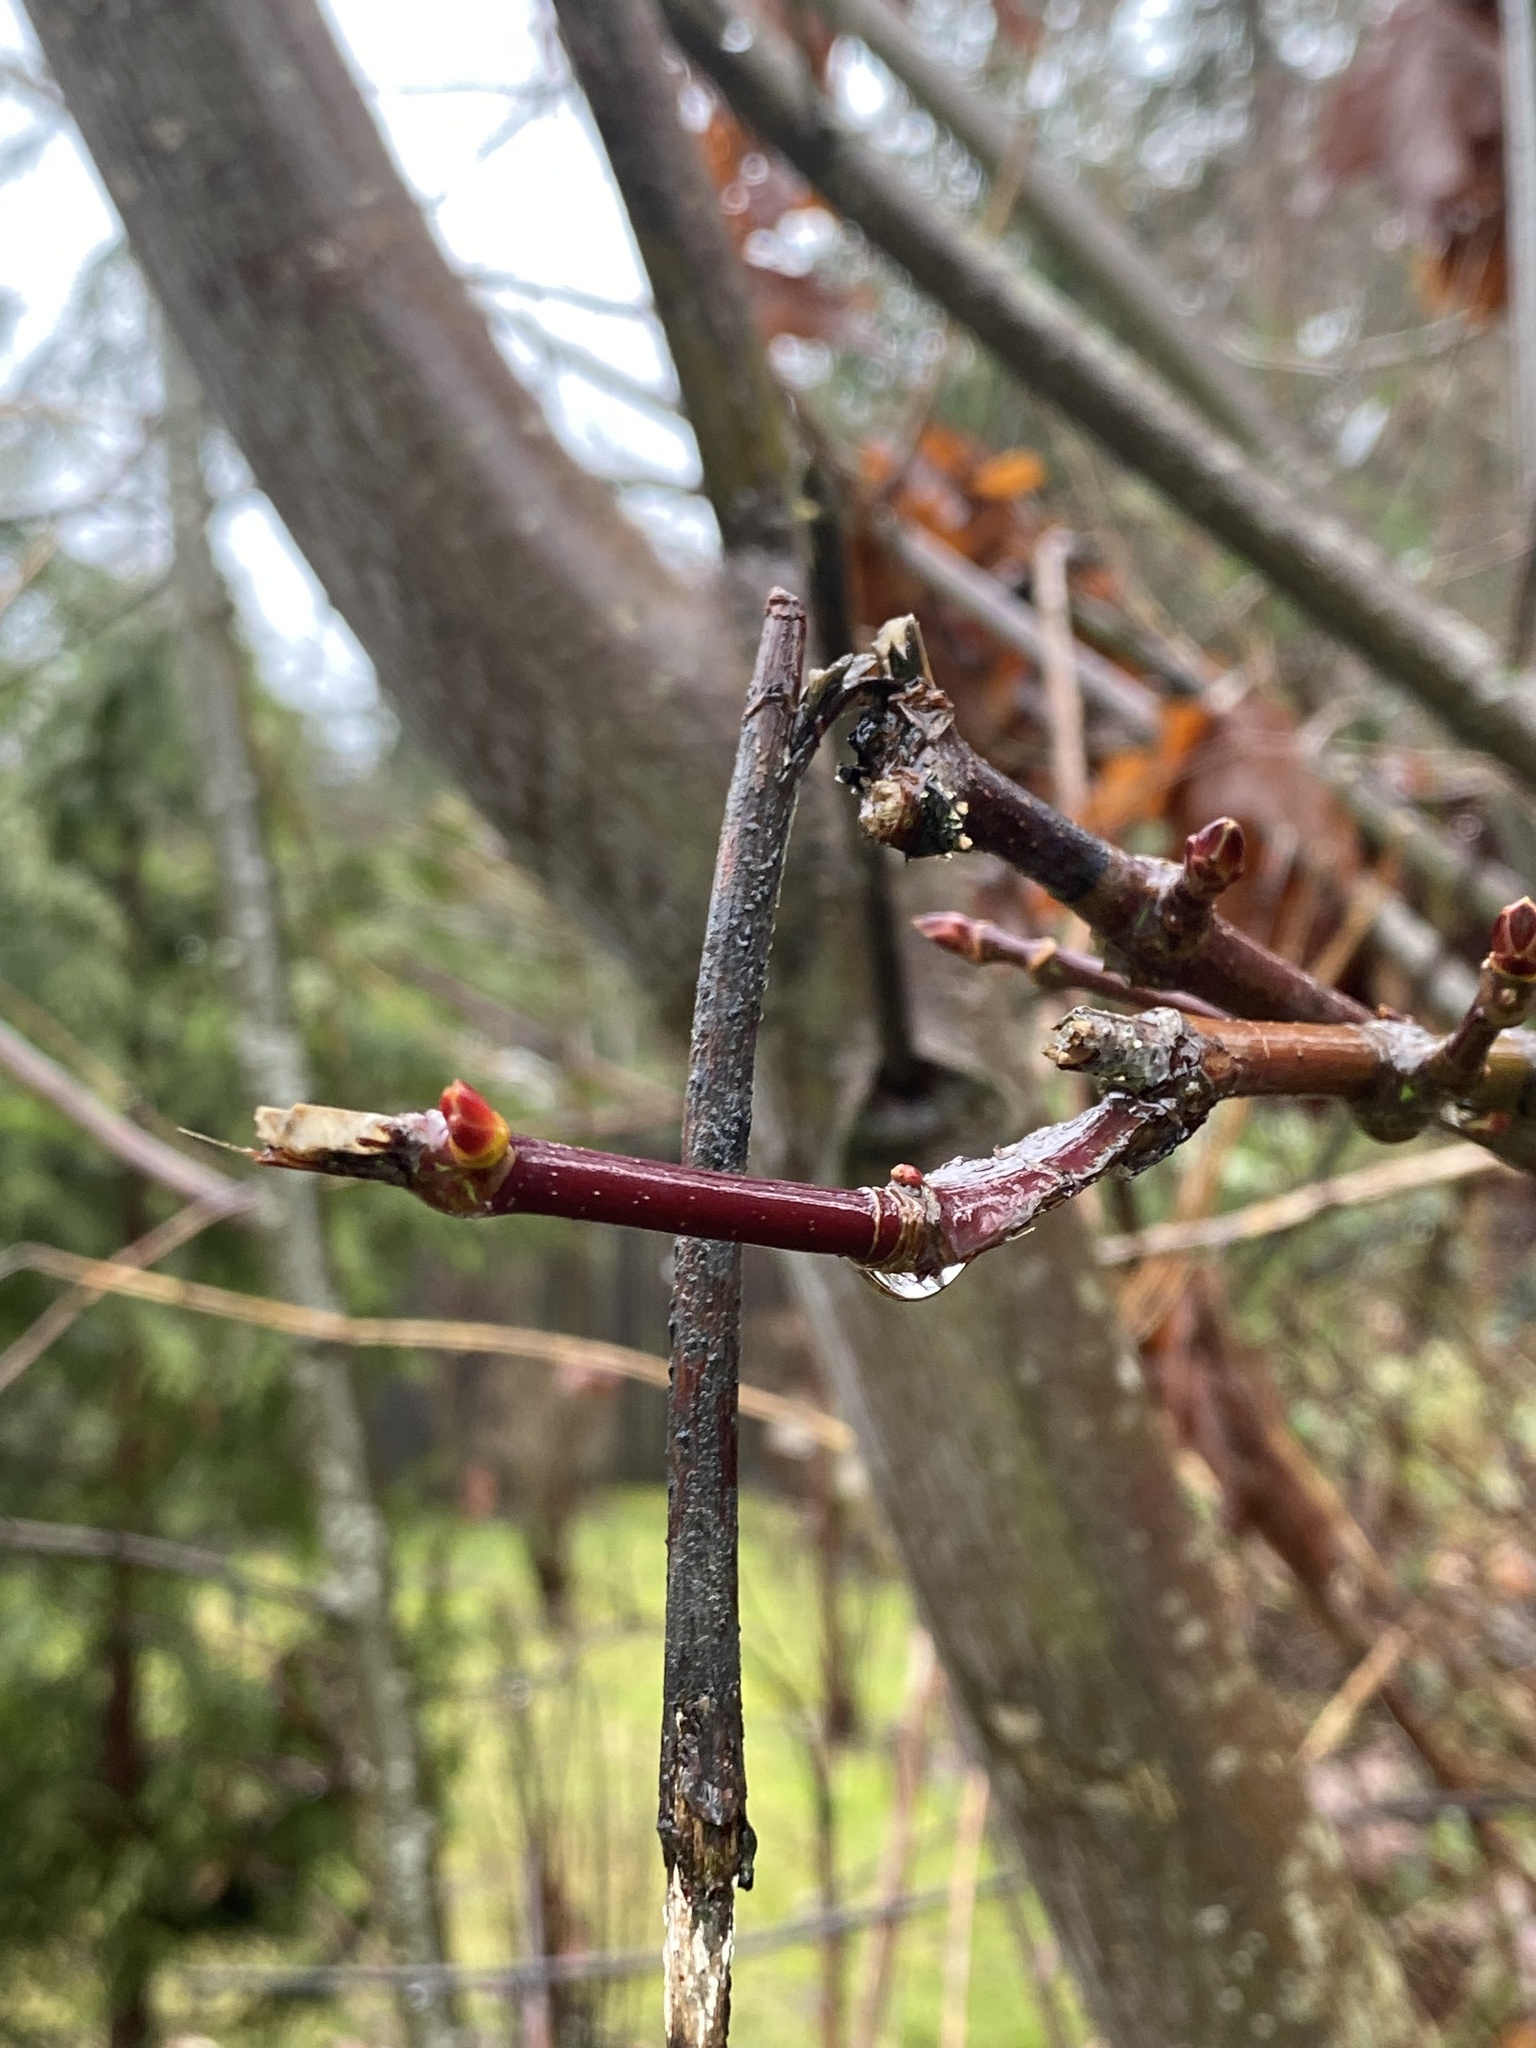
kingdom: Plantae
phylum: Tracheophyta
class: Magnoliopsida
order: Sapindales
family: Sapindaceae
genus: Acer
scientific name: Acer macrophyllum
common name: Oregon maple
